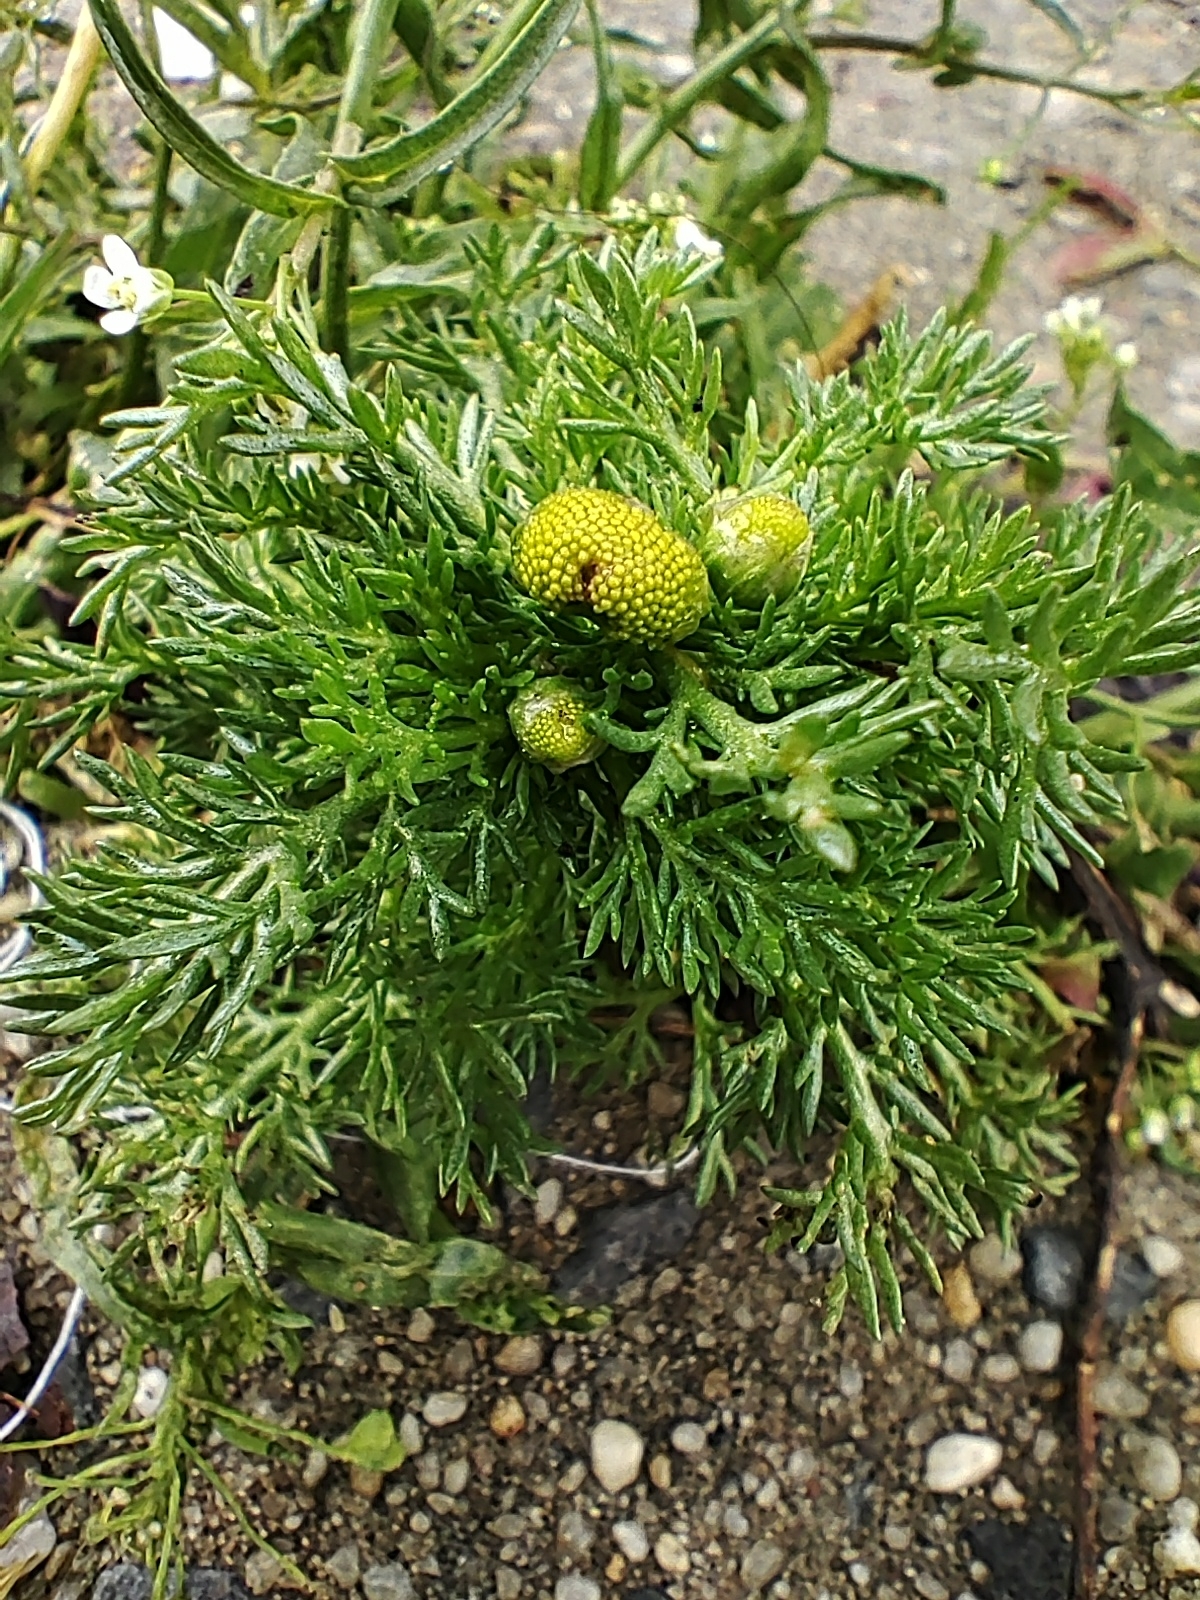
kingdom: Plantae
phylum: Tracheophyta
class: Magnoliopsida
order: Asterales
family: Asteraceae
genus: Matricaria
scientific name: Matricaria discoidea
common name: Disc mayweed
